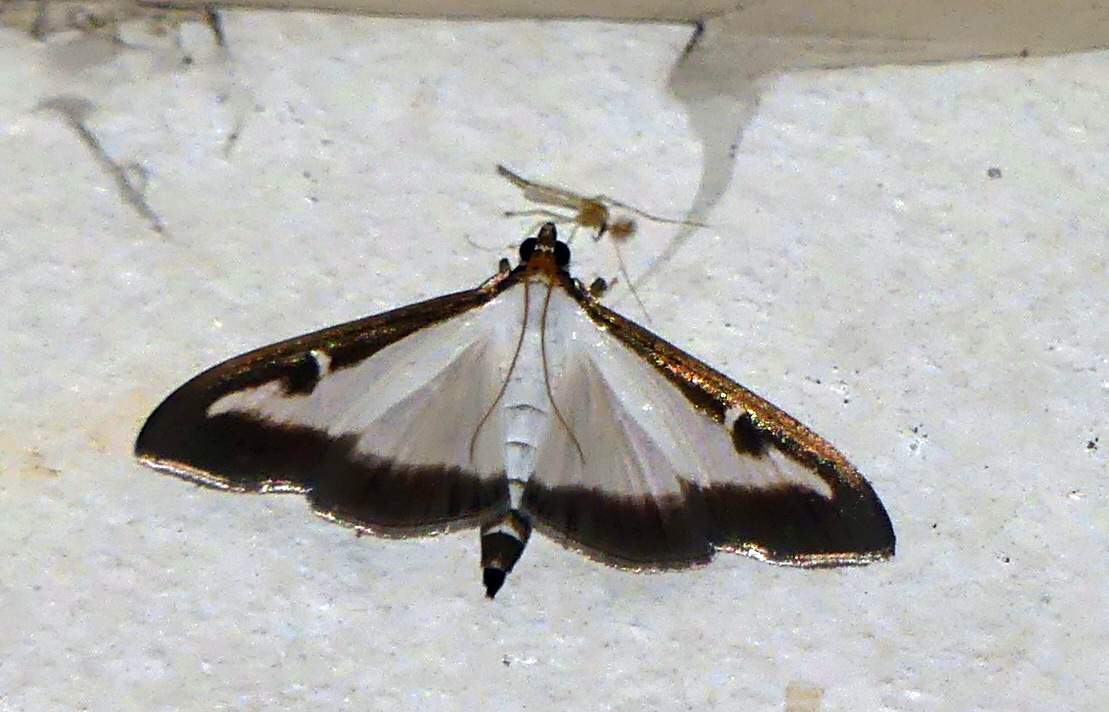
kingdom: Animalia
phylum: Arthropoda
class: Insecta
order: Lepidoptera
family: Crambidae
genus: Cydalima
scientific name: Cydalima perspectalis
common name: Box tree moth
